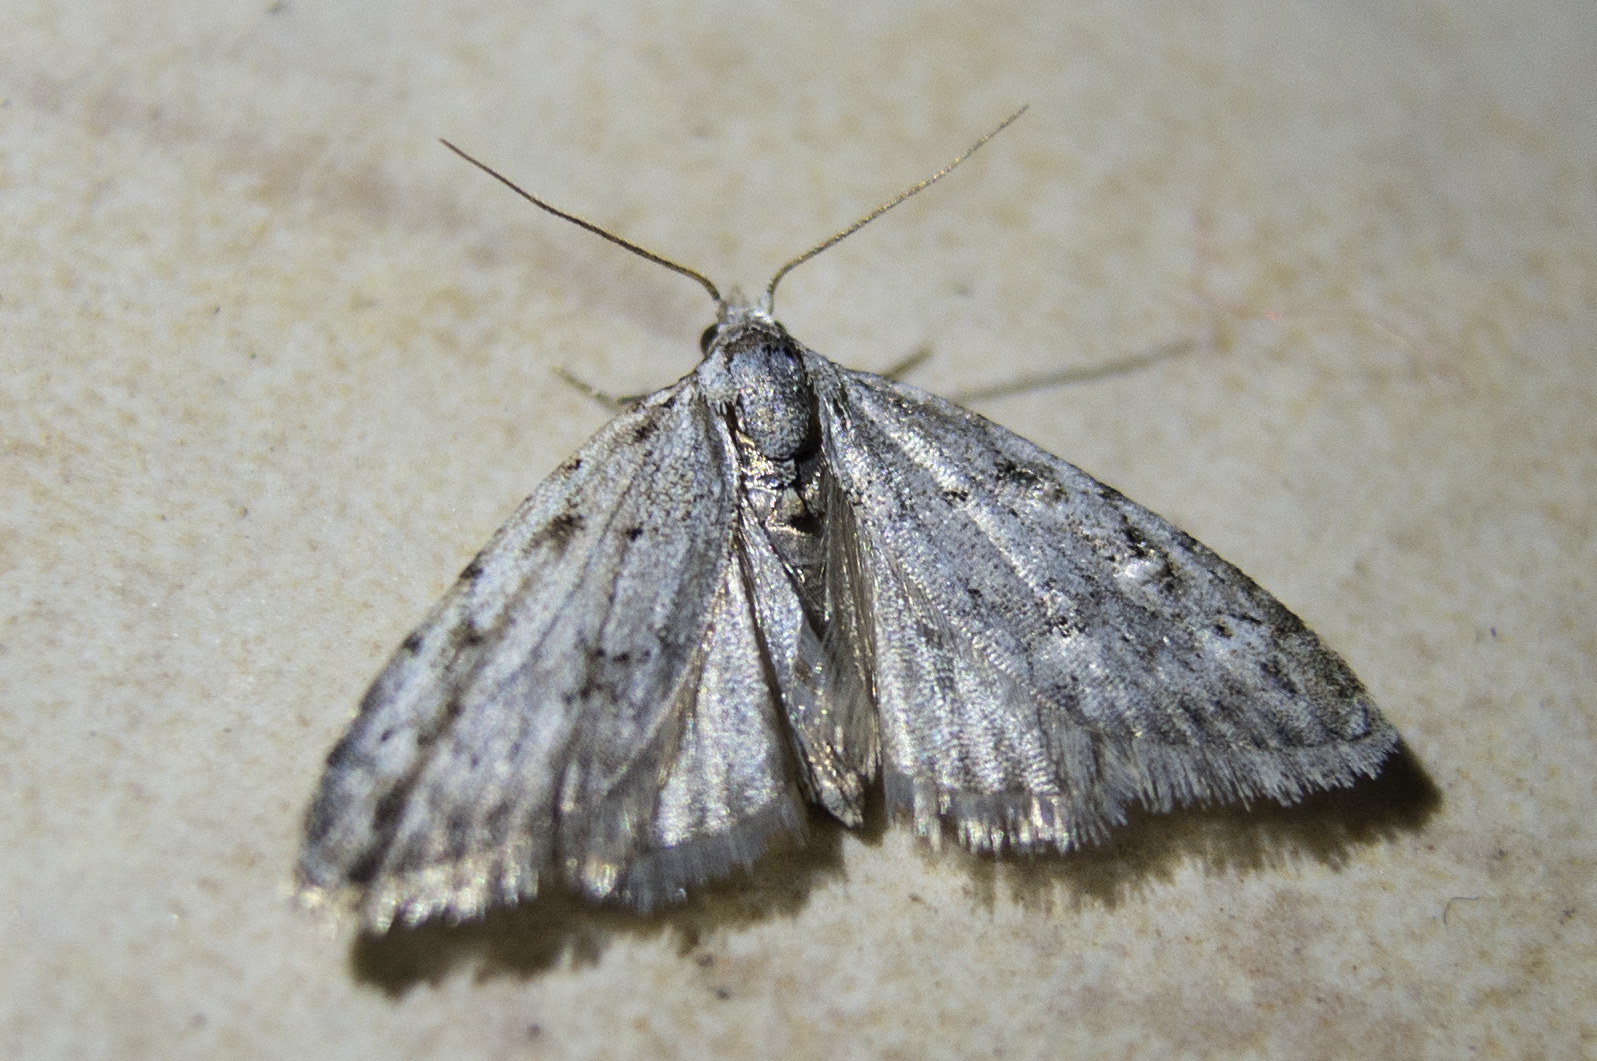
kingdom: Animalia
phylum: Arthropoda
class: Insecta
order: Lepidoptera
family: Nolidae
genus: Nola
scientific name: Nola cicatricalis
